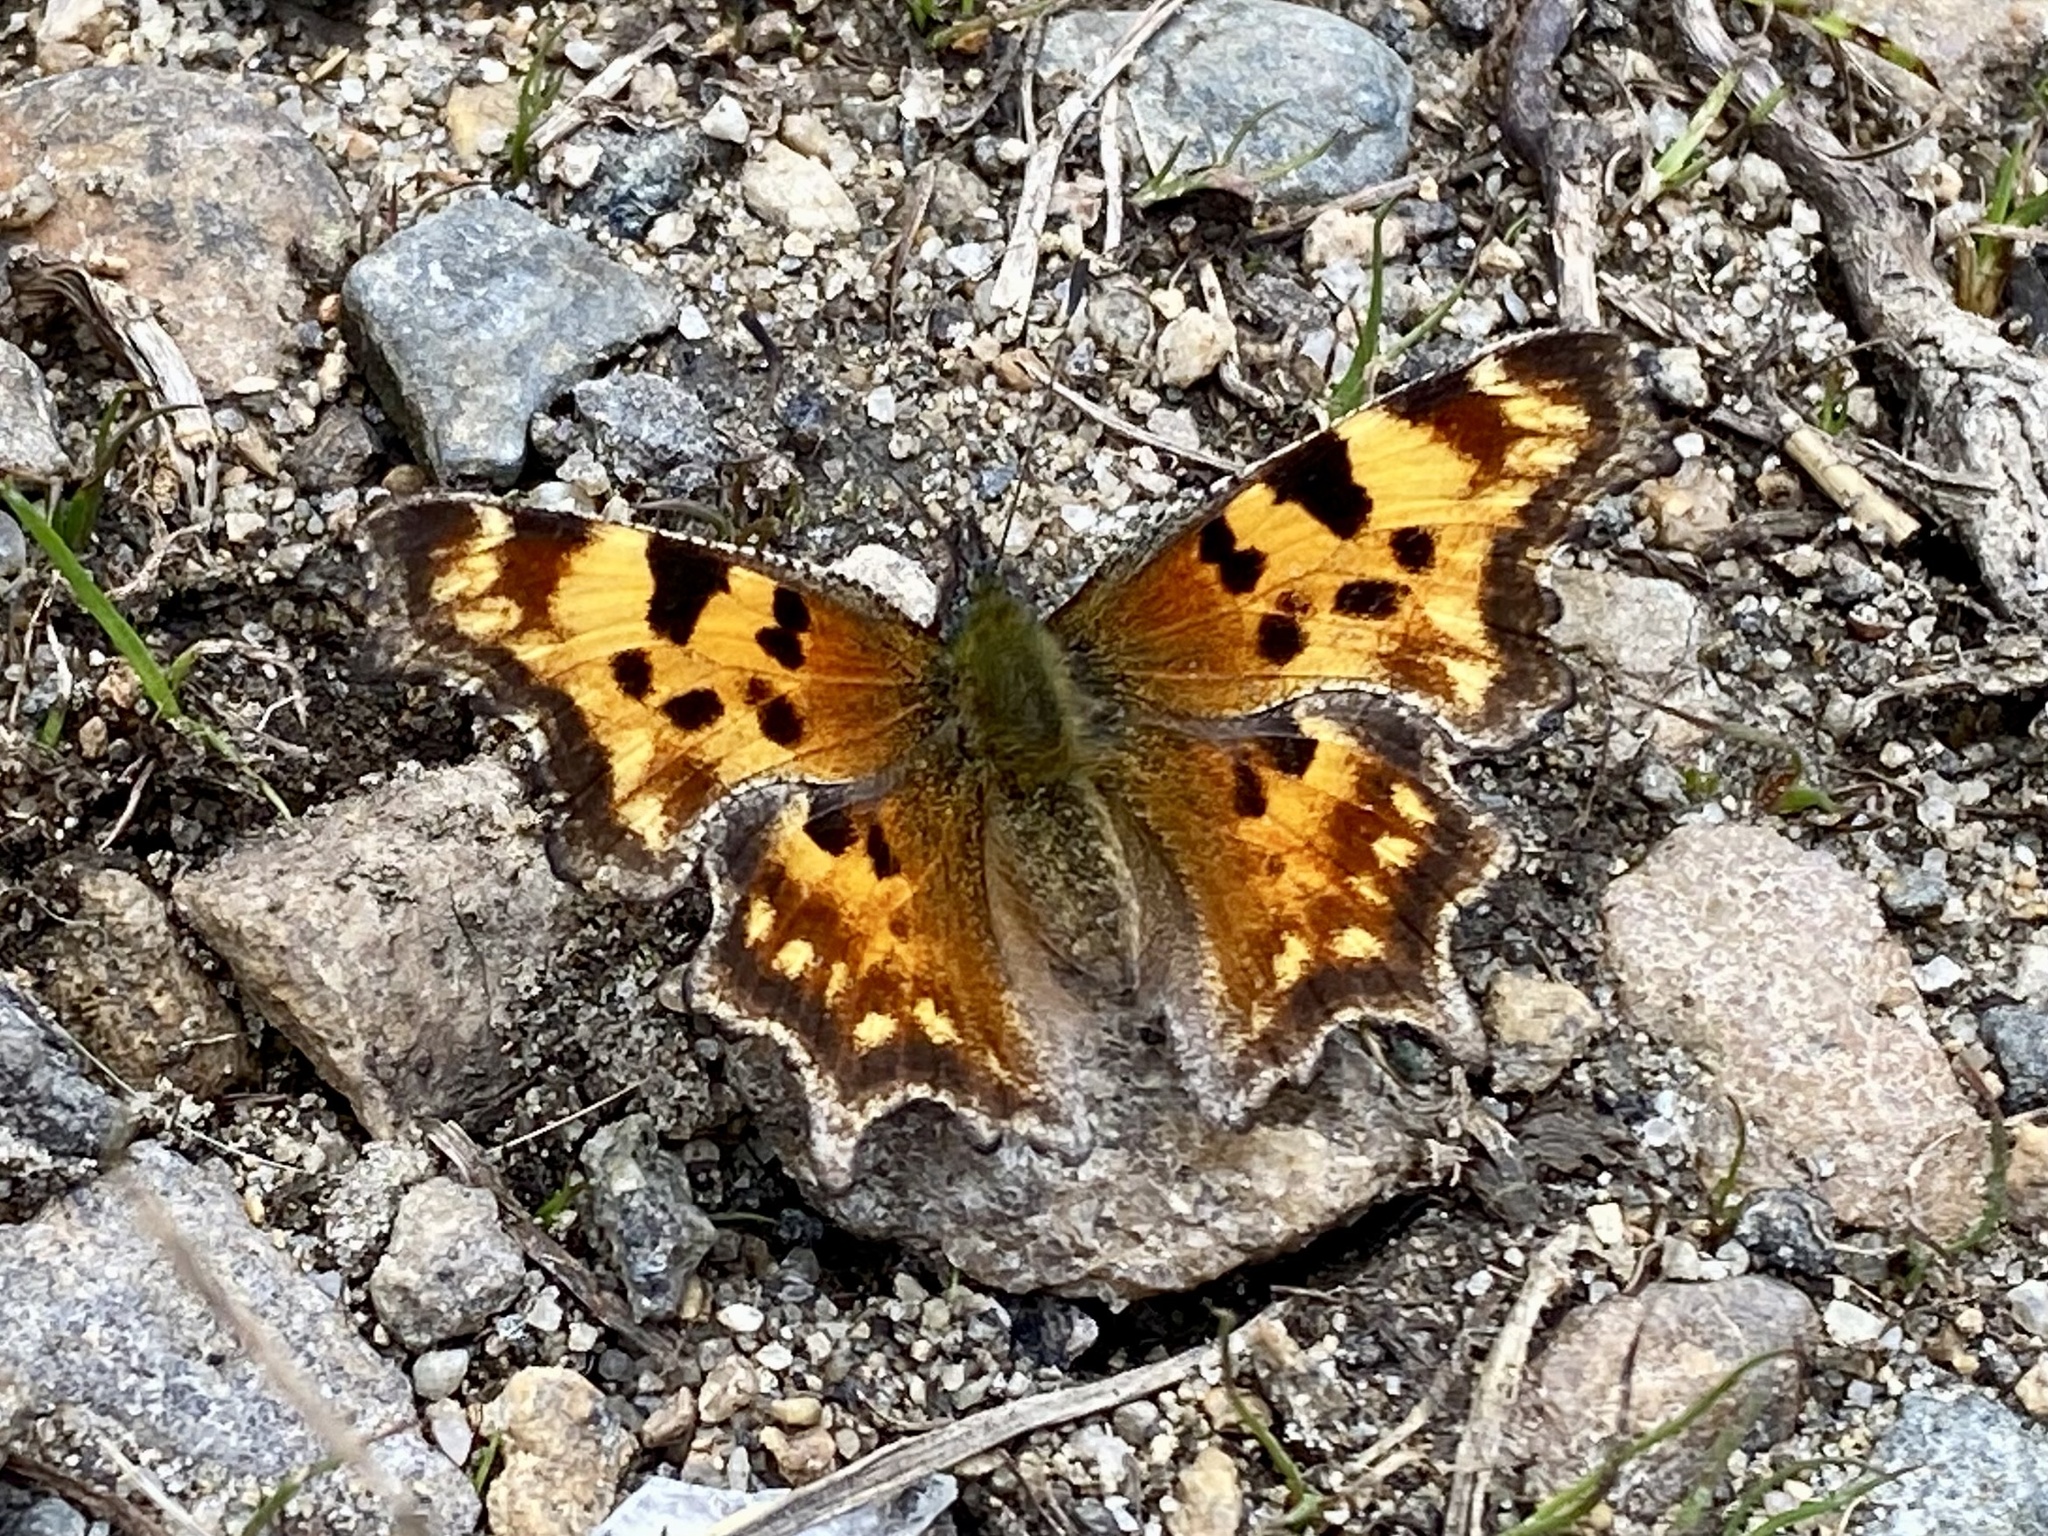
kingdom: Animalia
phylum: Arthropoda
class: Insecta
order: Lepidoptera
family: Nymphalidae
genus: Polygonia
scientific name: Polygonia faunus
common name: Green comma
